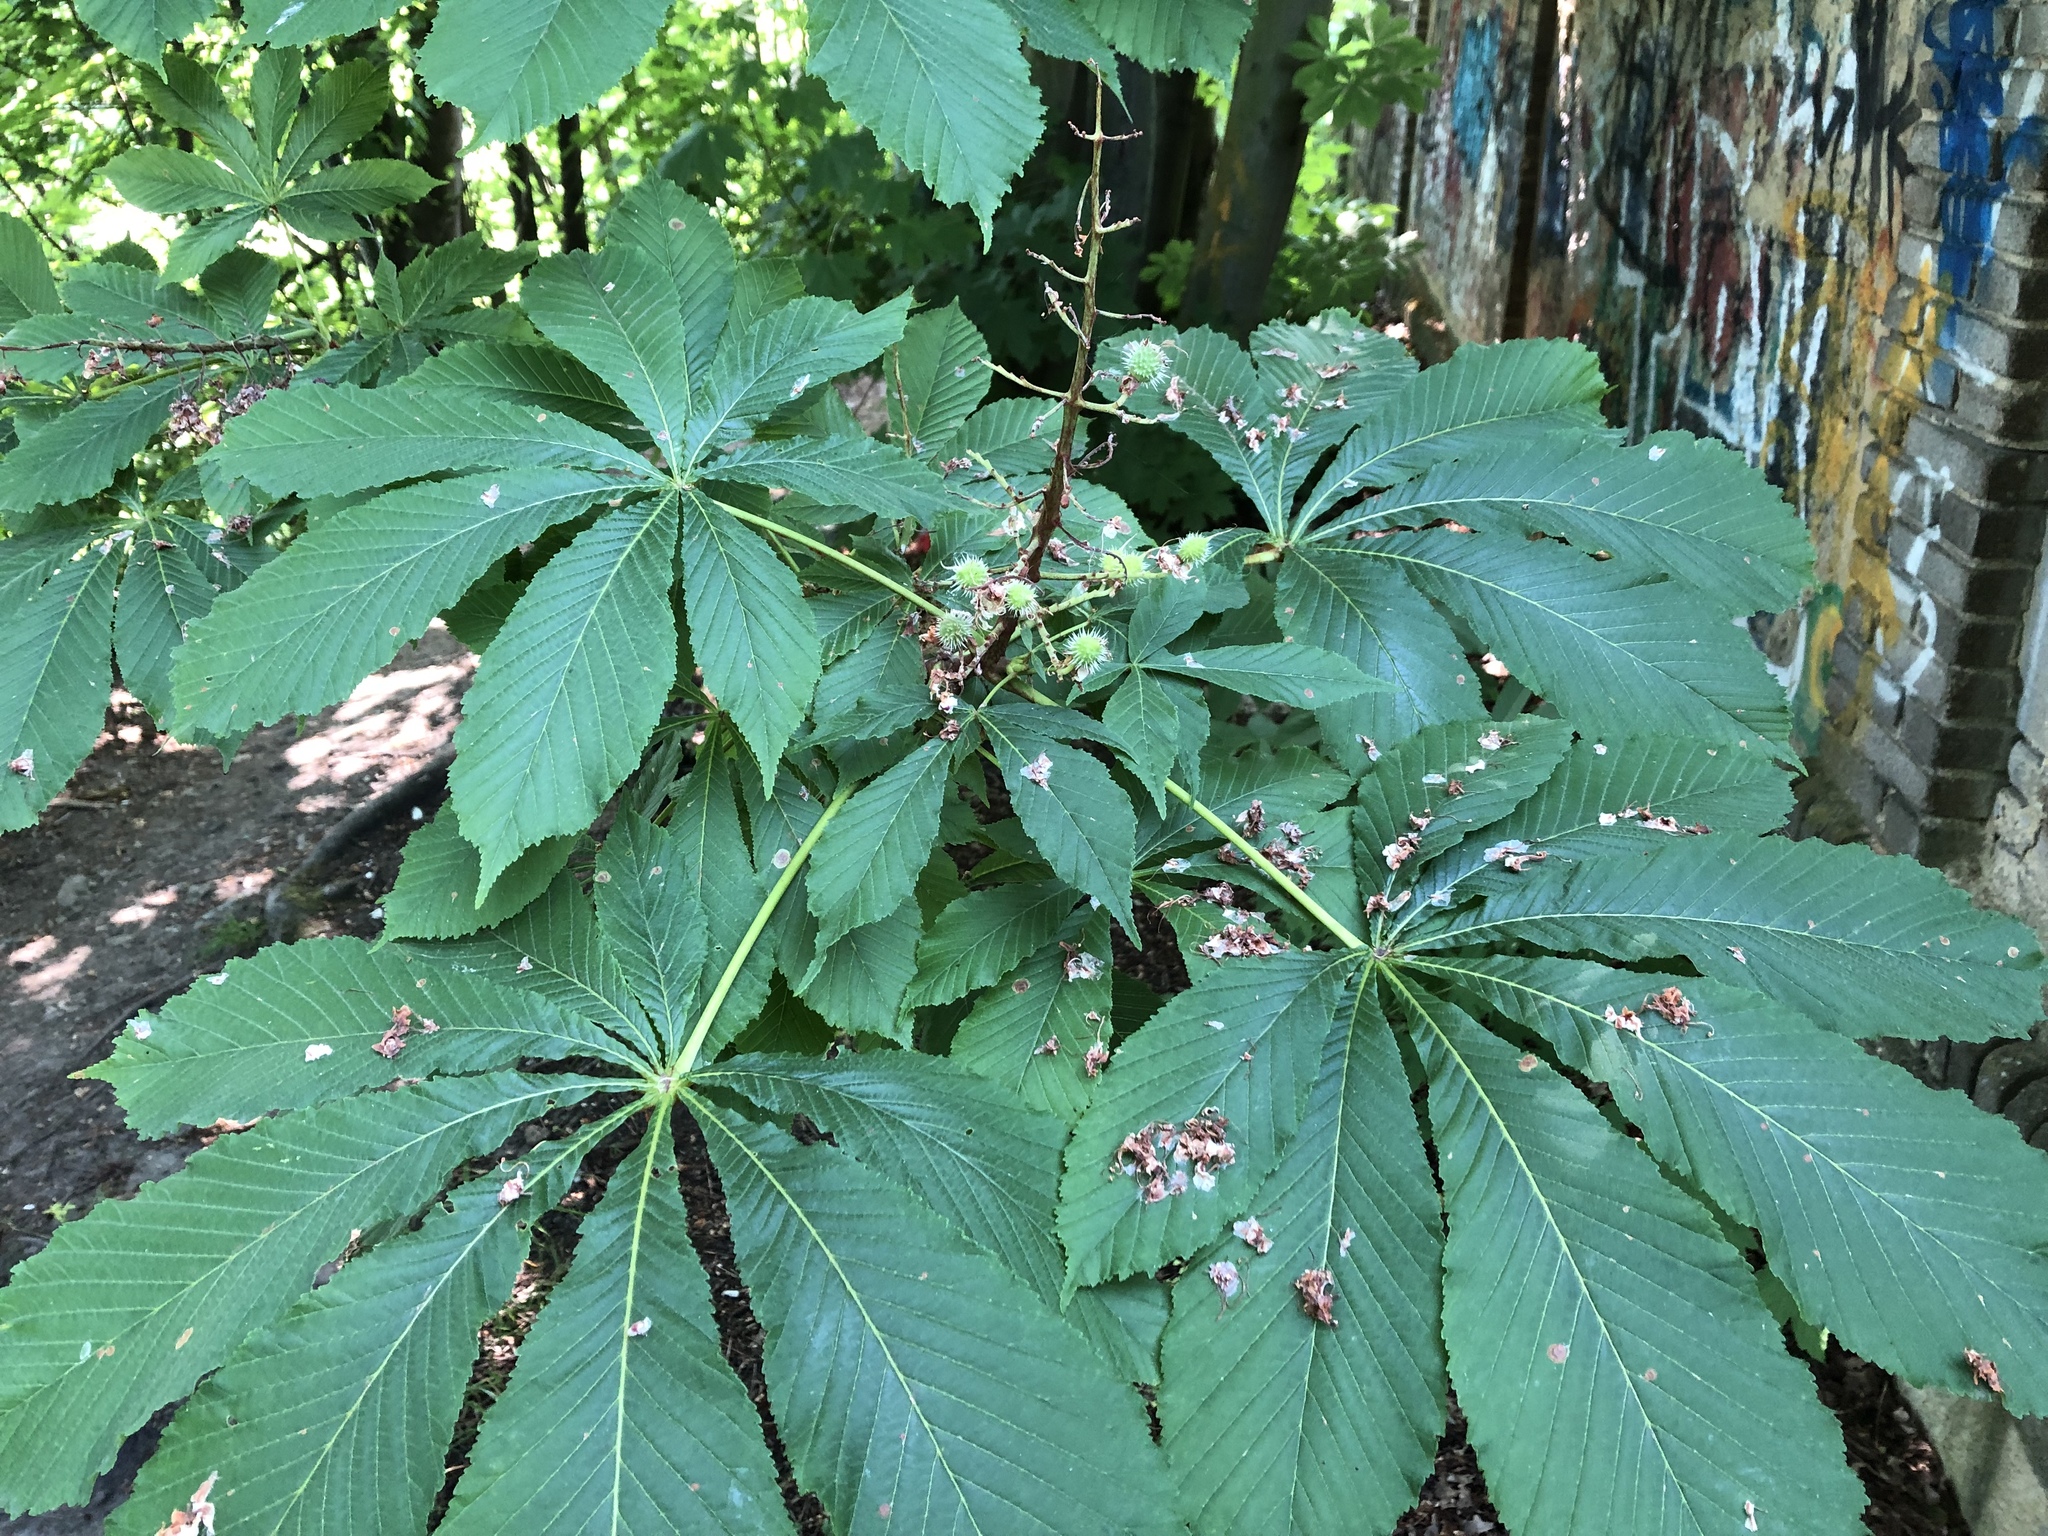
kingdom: Plantae
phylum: Tracheophyta
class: Magnoliopsida
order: Sapindales
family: Sapindaceae
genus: Aesculus
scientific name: Aesculus hippocastanum
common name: Horse-chestnut
